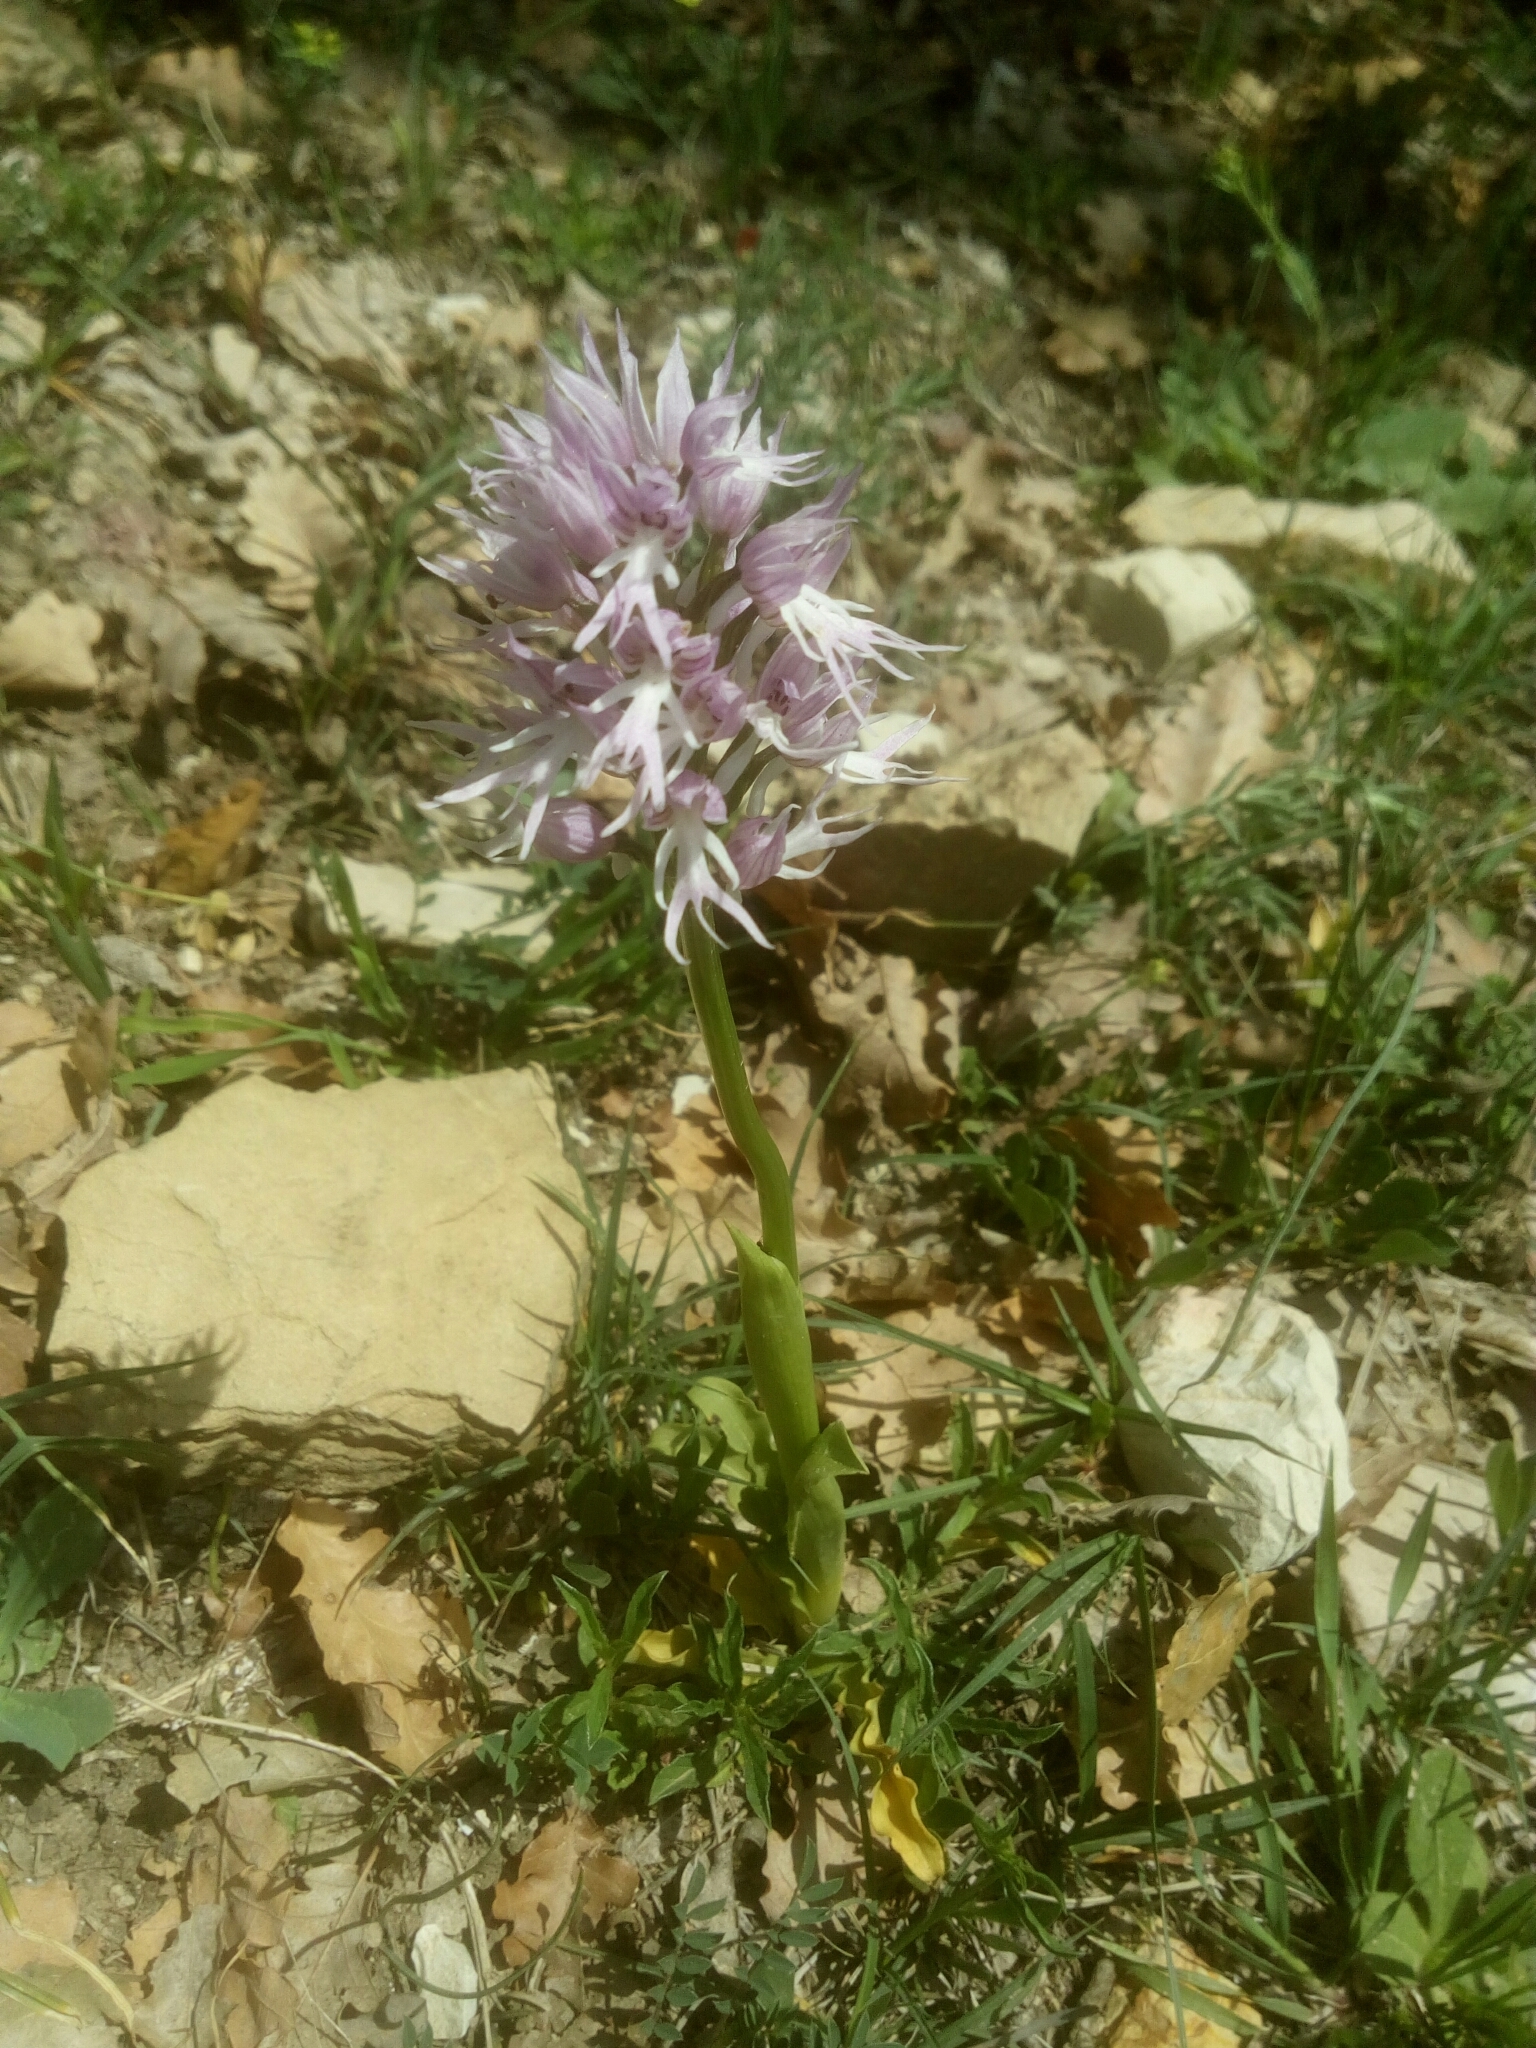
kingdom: Plantae
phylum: Tracheophyta
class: Liliopsida
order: Asparagales
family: Orchidaceae
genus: Orchis
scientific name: Orchis italica
